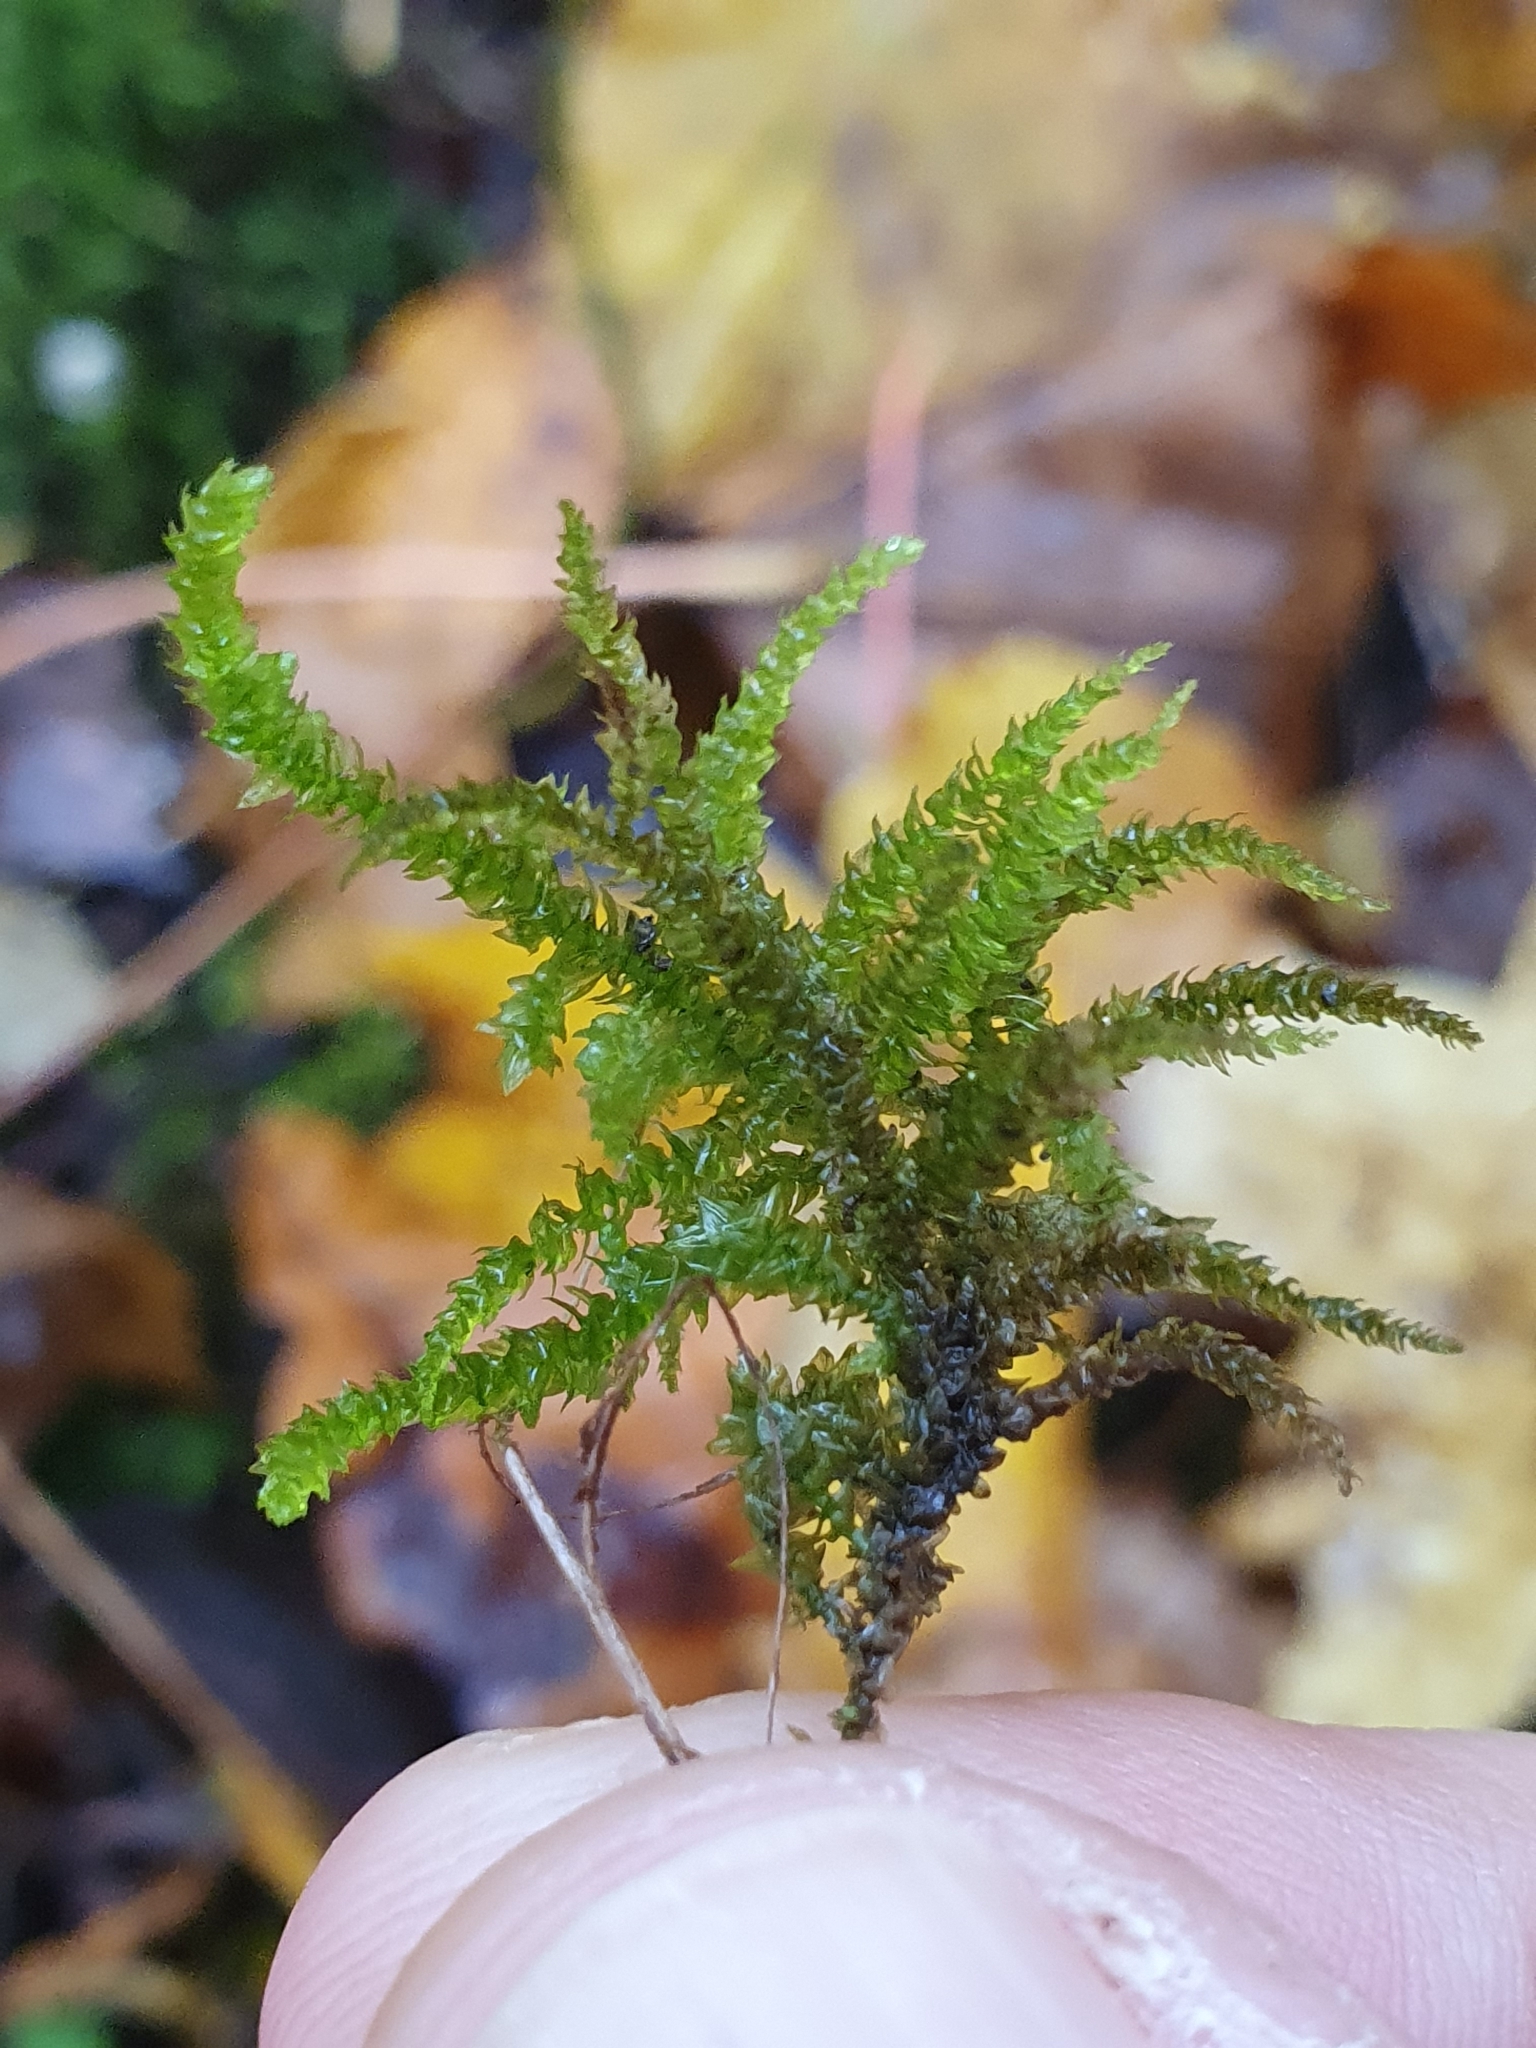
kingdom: Plantae
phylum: Bryophyta
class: Bryopsida
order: Hypnales
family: Brachytheciaceae
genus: Eurhynchium
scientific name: Eurhynchium angustirete
